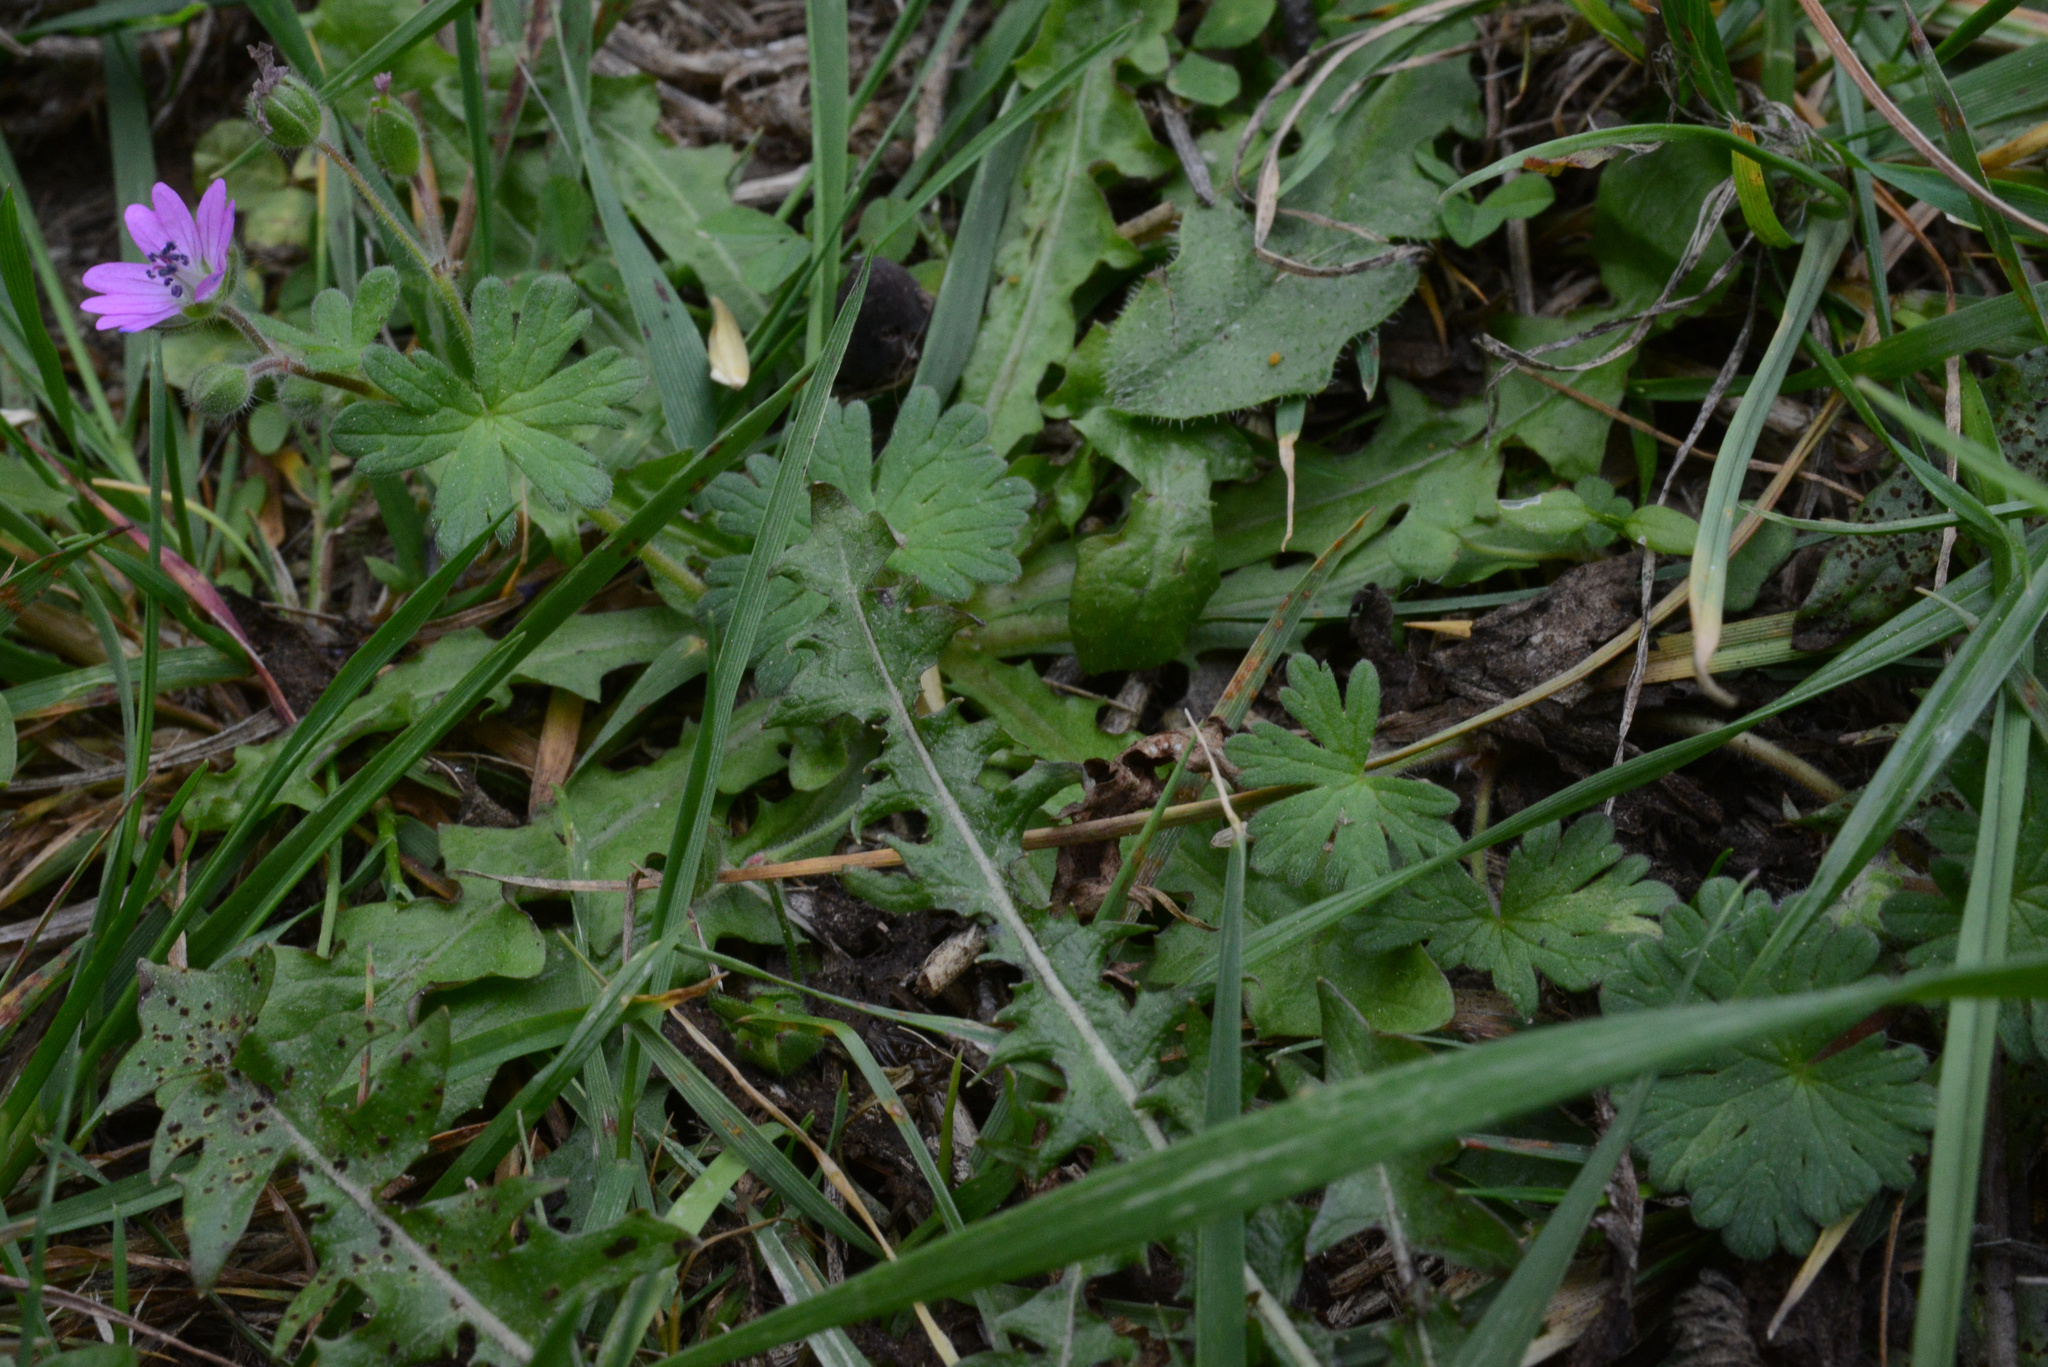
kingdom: Plantae
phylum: Tracheophyta
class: Magnoliopsida
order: Geraniales
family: Geraniaceae
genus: Geranium
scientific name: Geranium molle
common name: Dove's-foot crane's-bill
